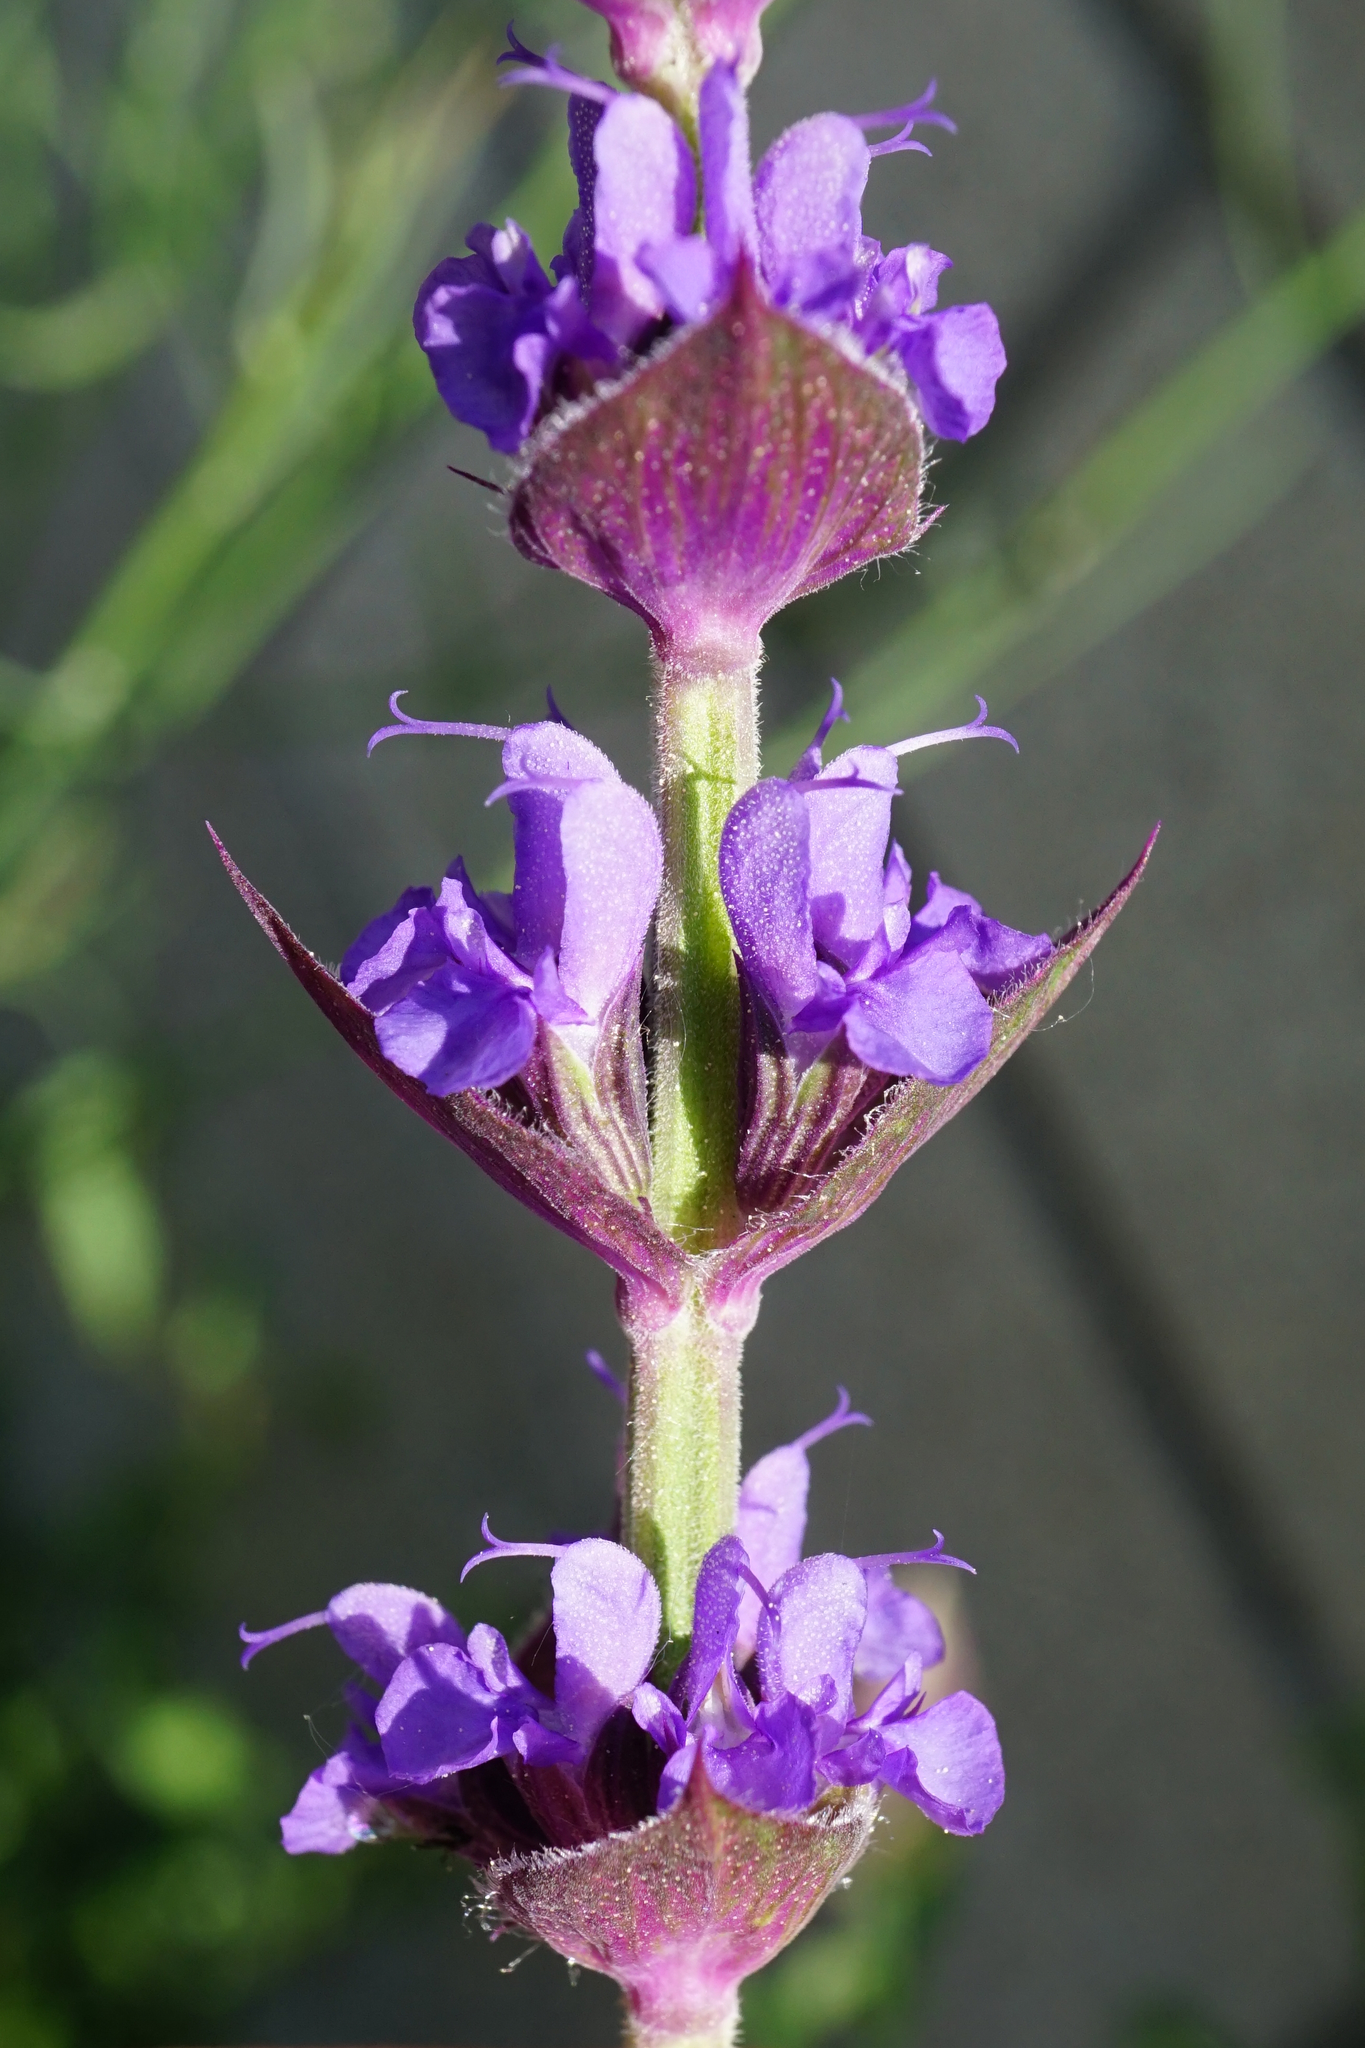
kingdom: Plantae
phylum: Tracheophyta
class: Magnoliopsida
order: Lamiales
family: Lamiaceae
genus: Salvia
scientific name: Salvia nemorosa
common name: Balkan clary
